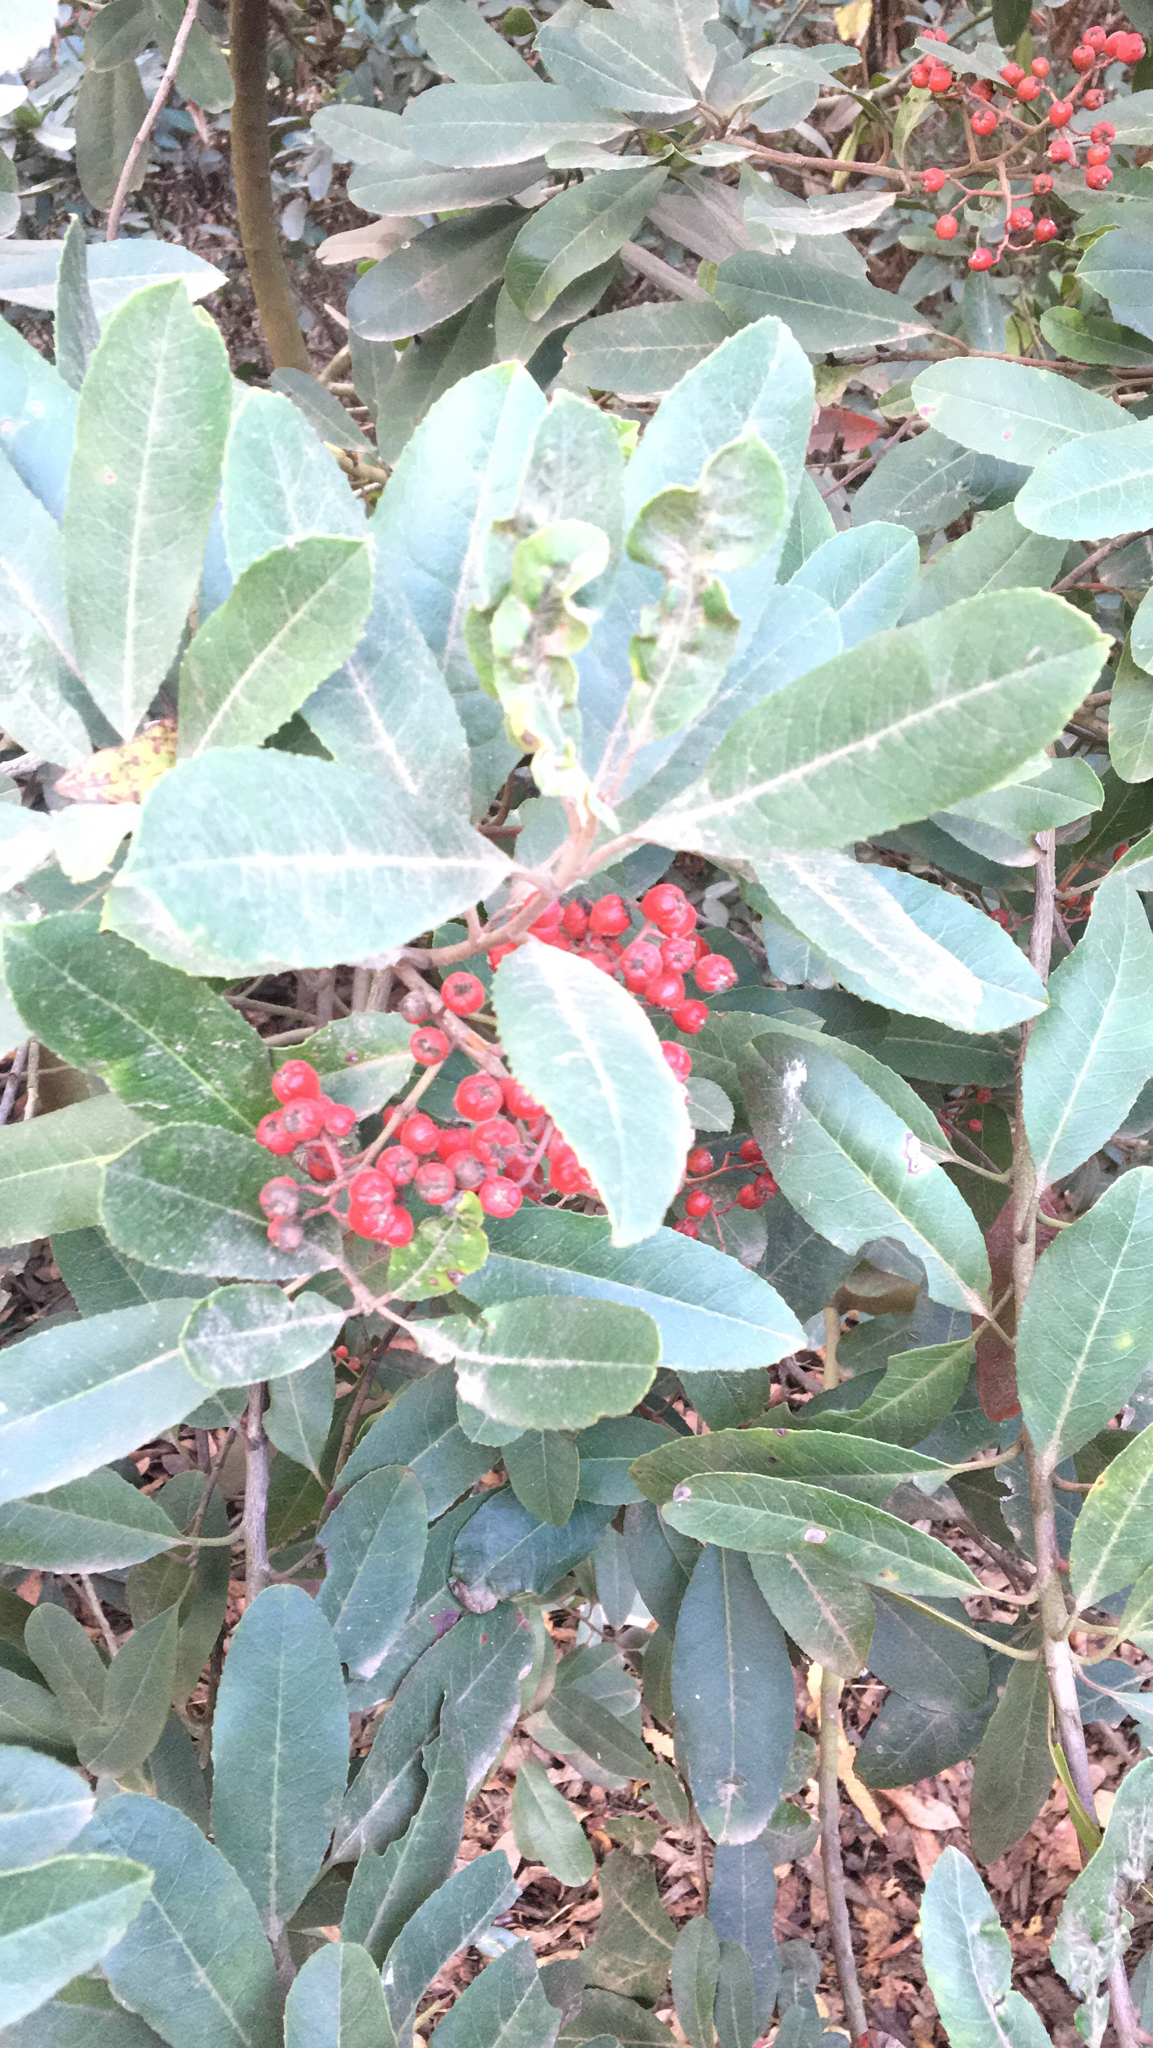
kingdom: Plantae
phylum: Tracheophyta
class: Magnoliopsida
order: Rosales
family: Rosaceae
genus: Heteromeles
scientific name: Heteromeles arbutifolia
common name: California-holly
